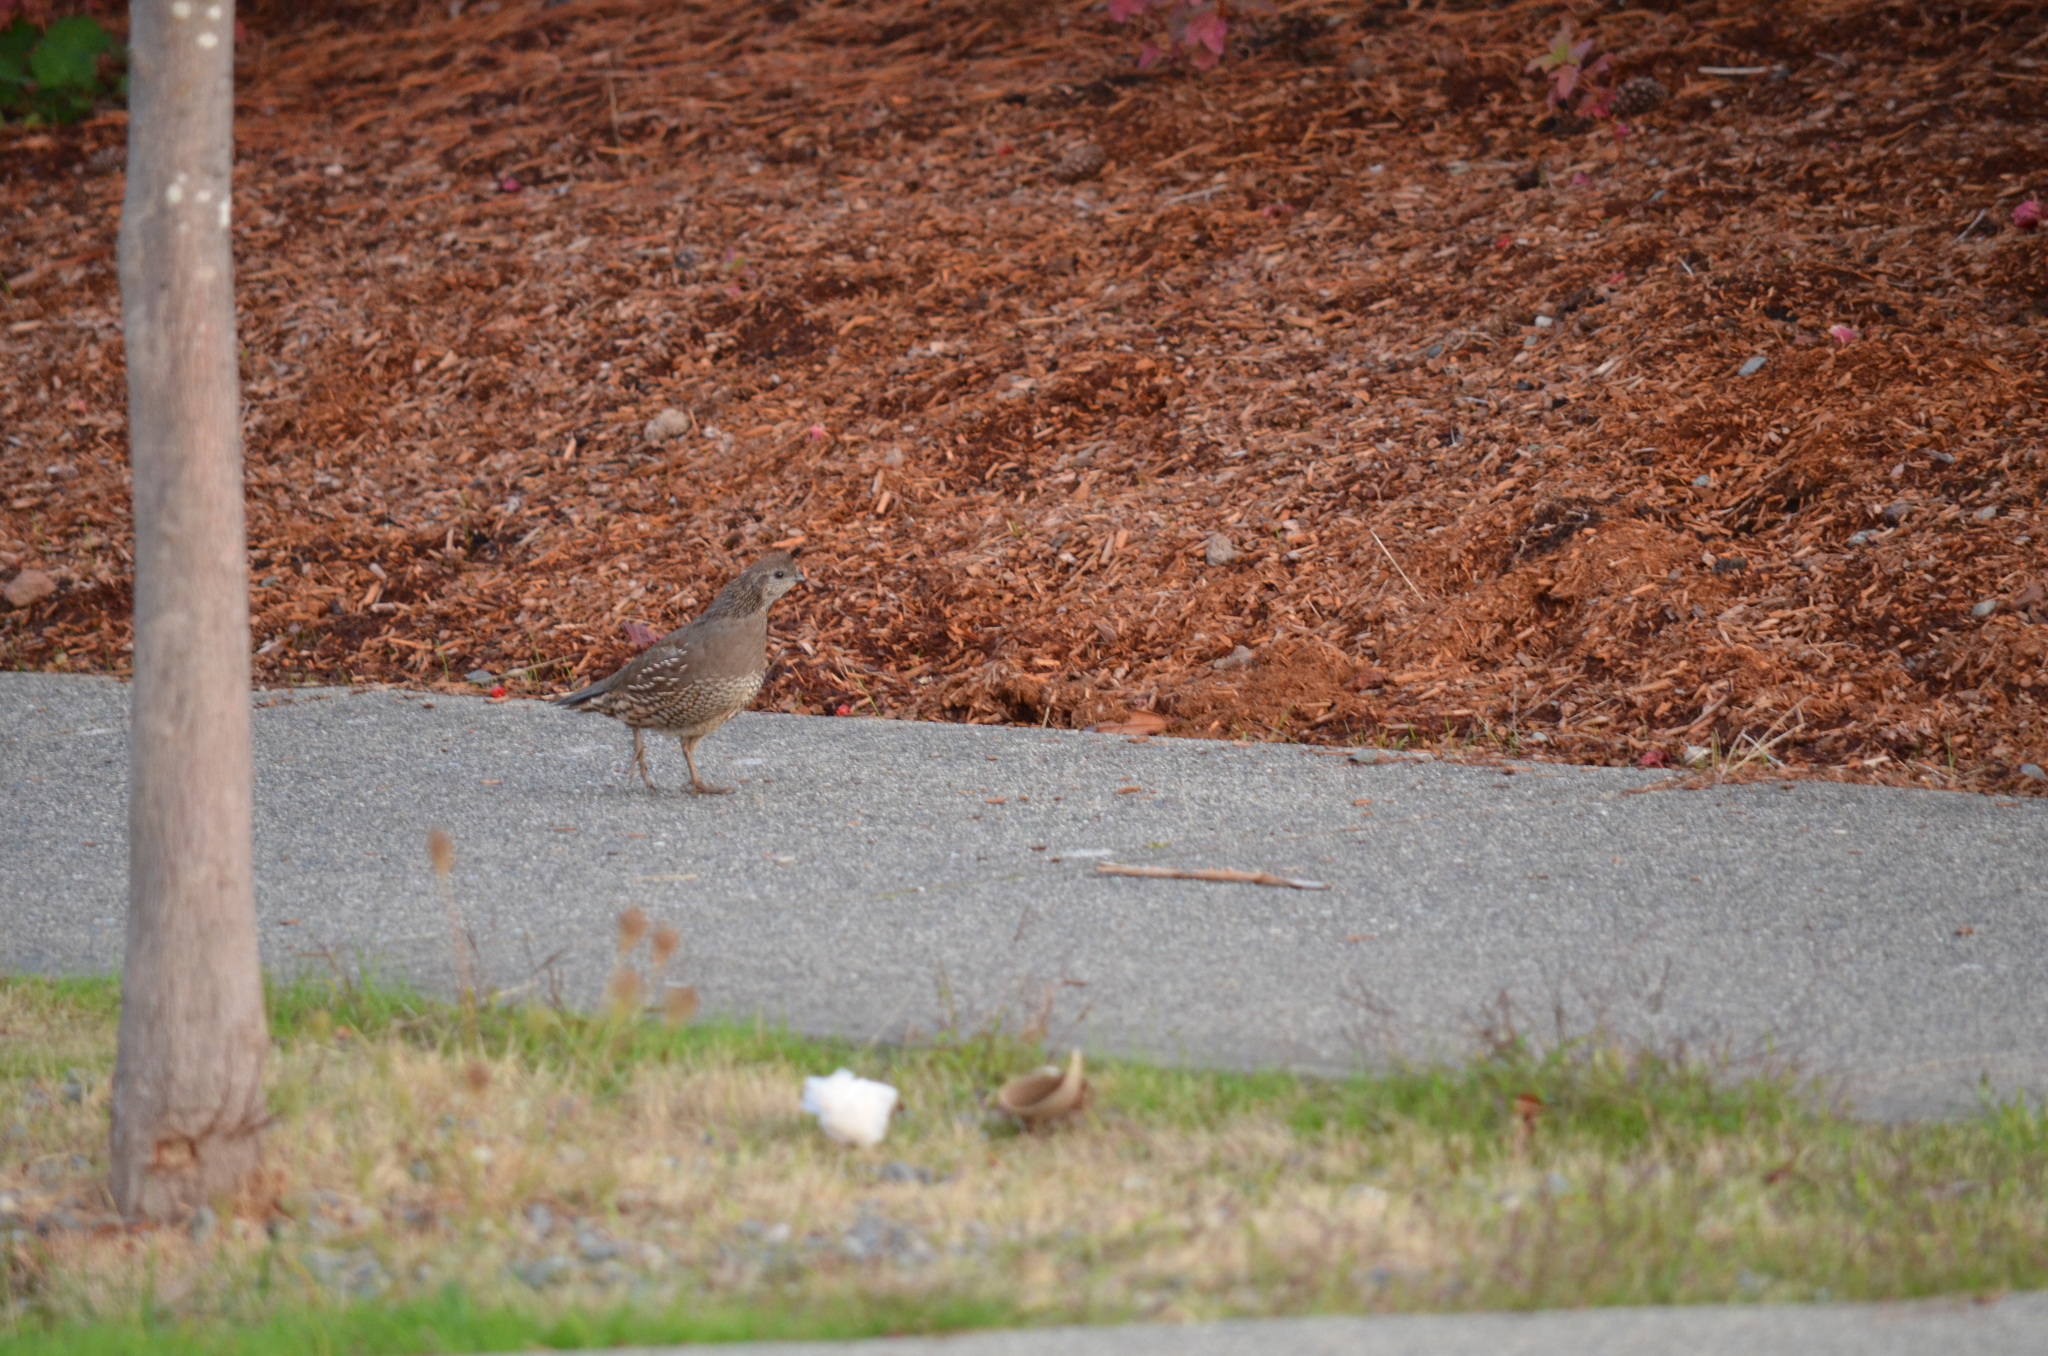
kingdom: Animalia
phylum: Chordata
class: Aves
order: Galliformes
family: Odontophoridae
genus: Callipepla
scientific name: Callipepla californica
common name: California quail
